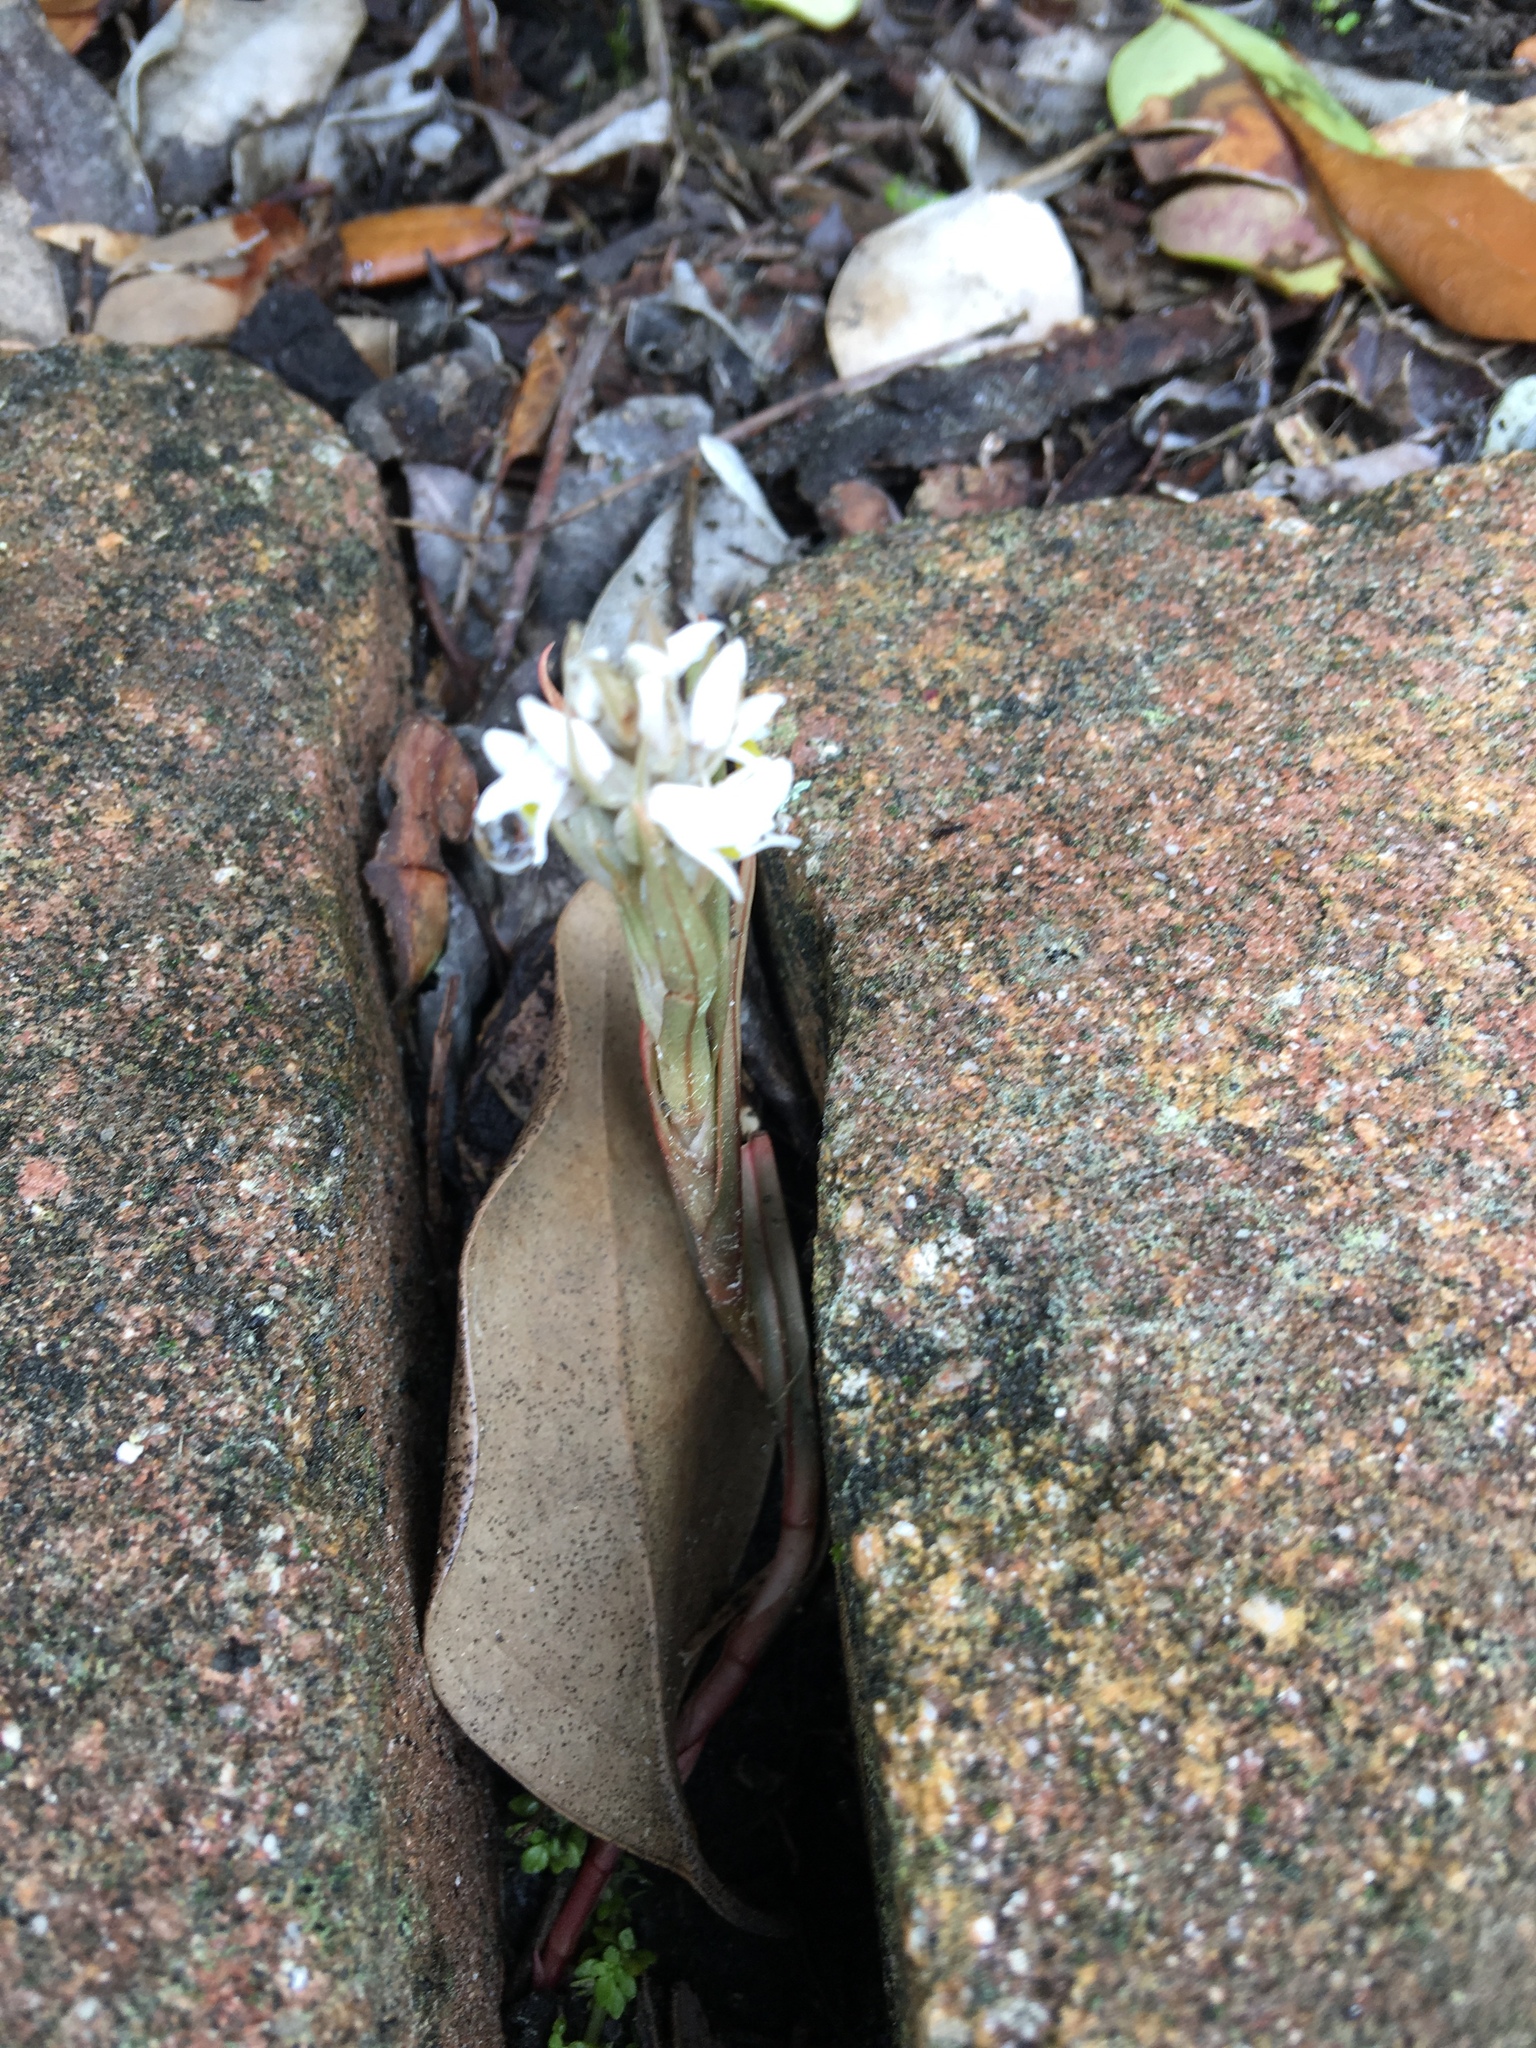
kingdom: Plantae
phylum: Tracheophyta
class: Liliopsida
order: Asparagales
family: Orchidaceae
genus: Zeuxine
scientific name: Zeuxine strateumatica
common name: Soldier's orchid
